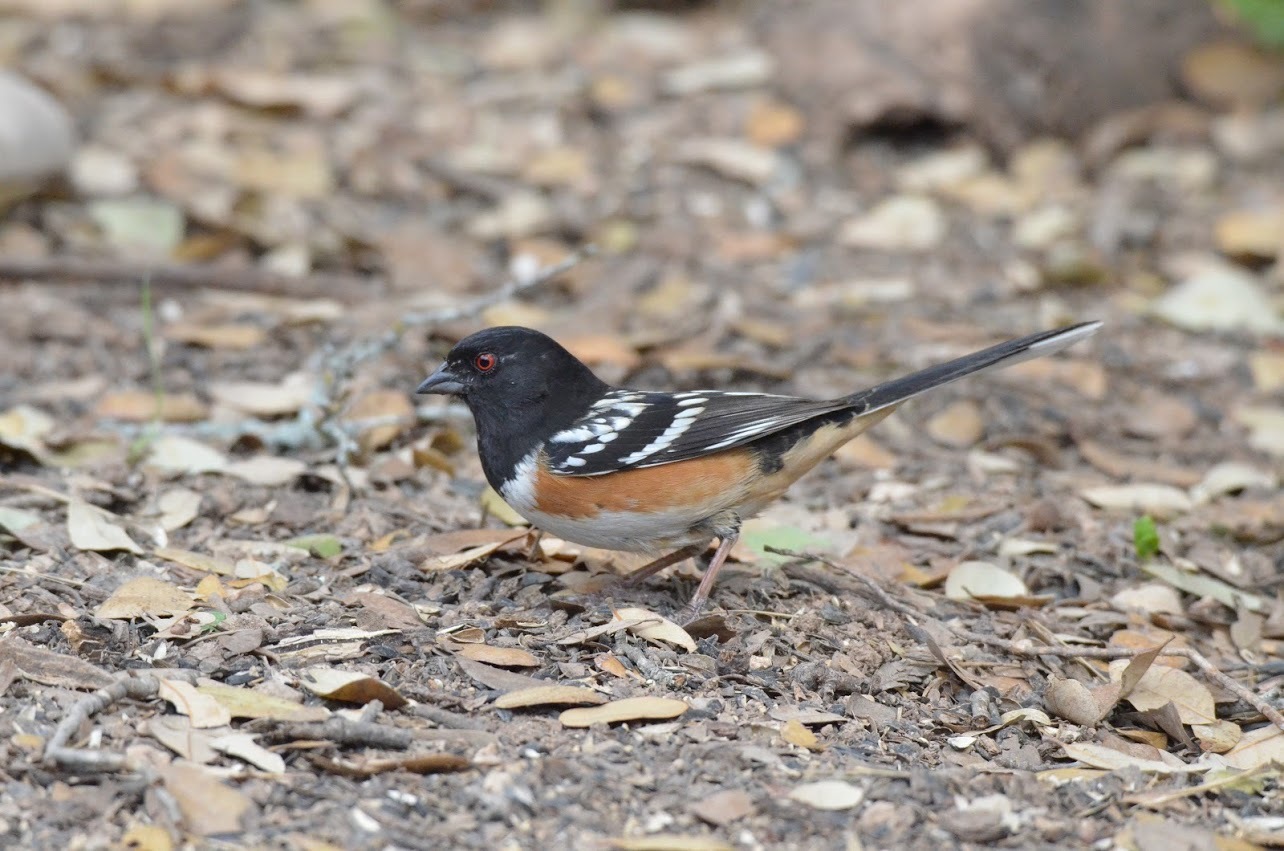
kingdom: Animalia
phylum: Chordata
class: Aves
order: Passeriformes
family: Passerellidae
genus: Pipilo
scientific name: Pipilo maculatus
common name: Spotted towhee
